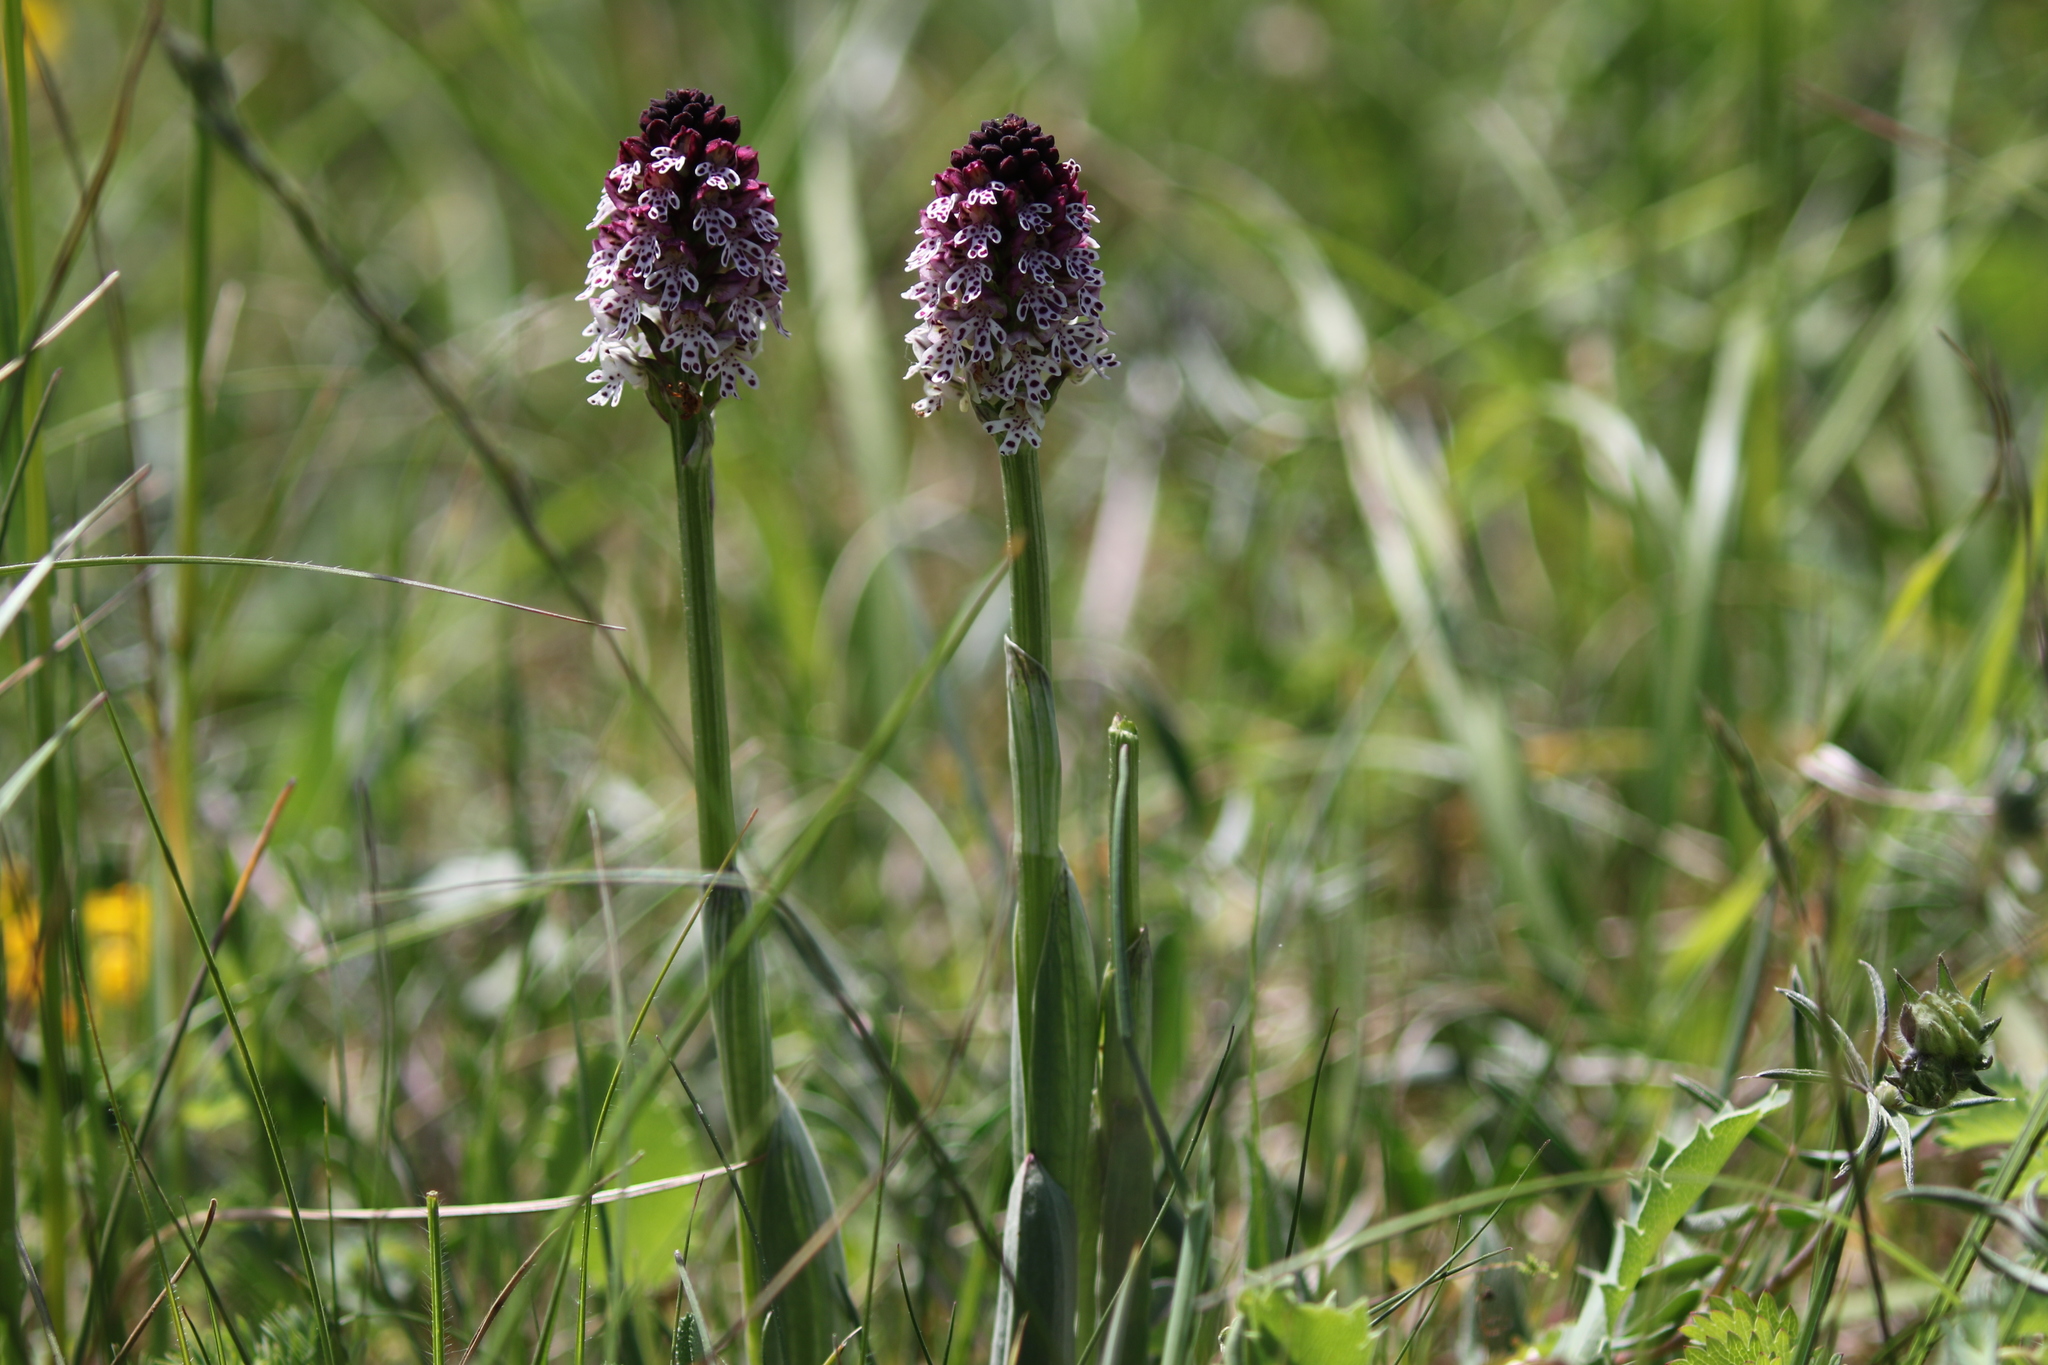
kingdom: Plantae
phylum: Tracheophyta
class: Liliopsida
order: Asparagales
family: Orchidaceae
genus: Neotinea
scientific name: Neotinea ustulata
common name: Burnt orchid
